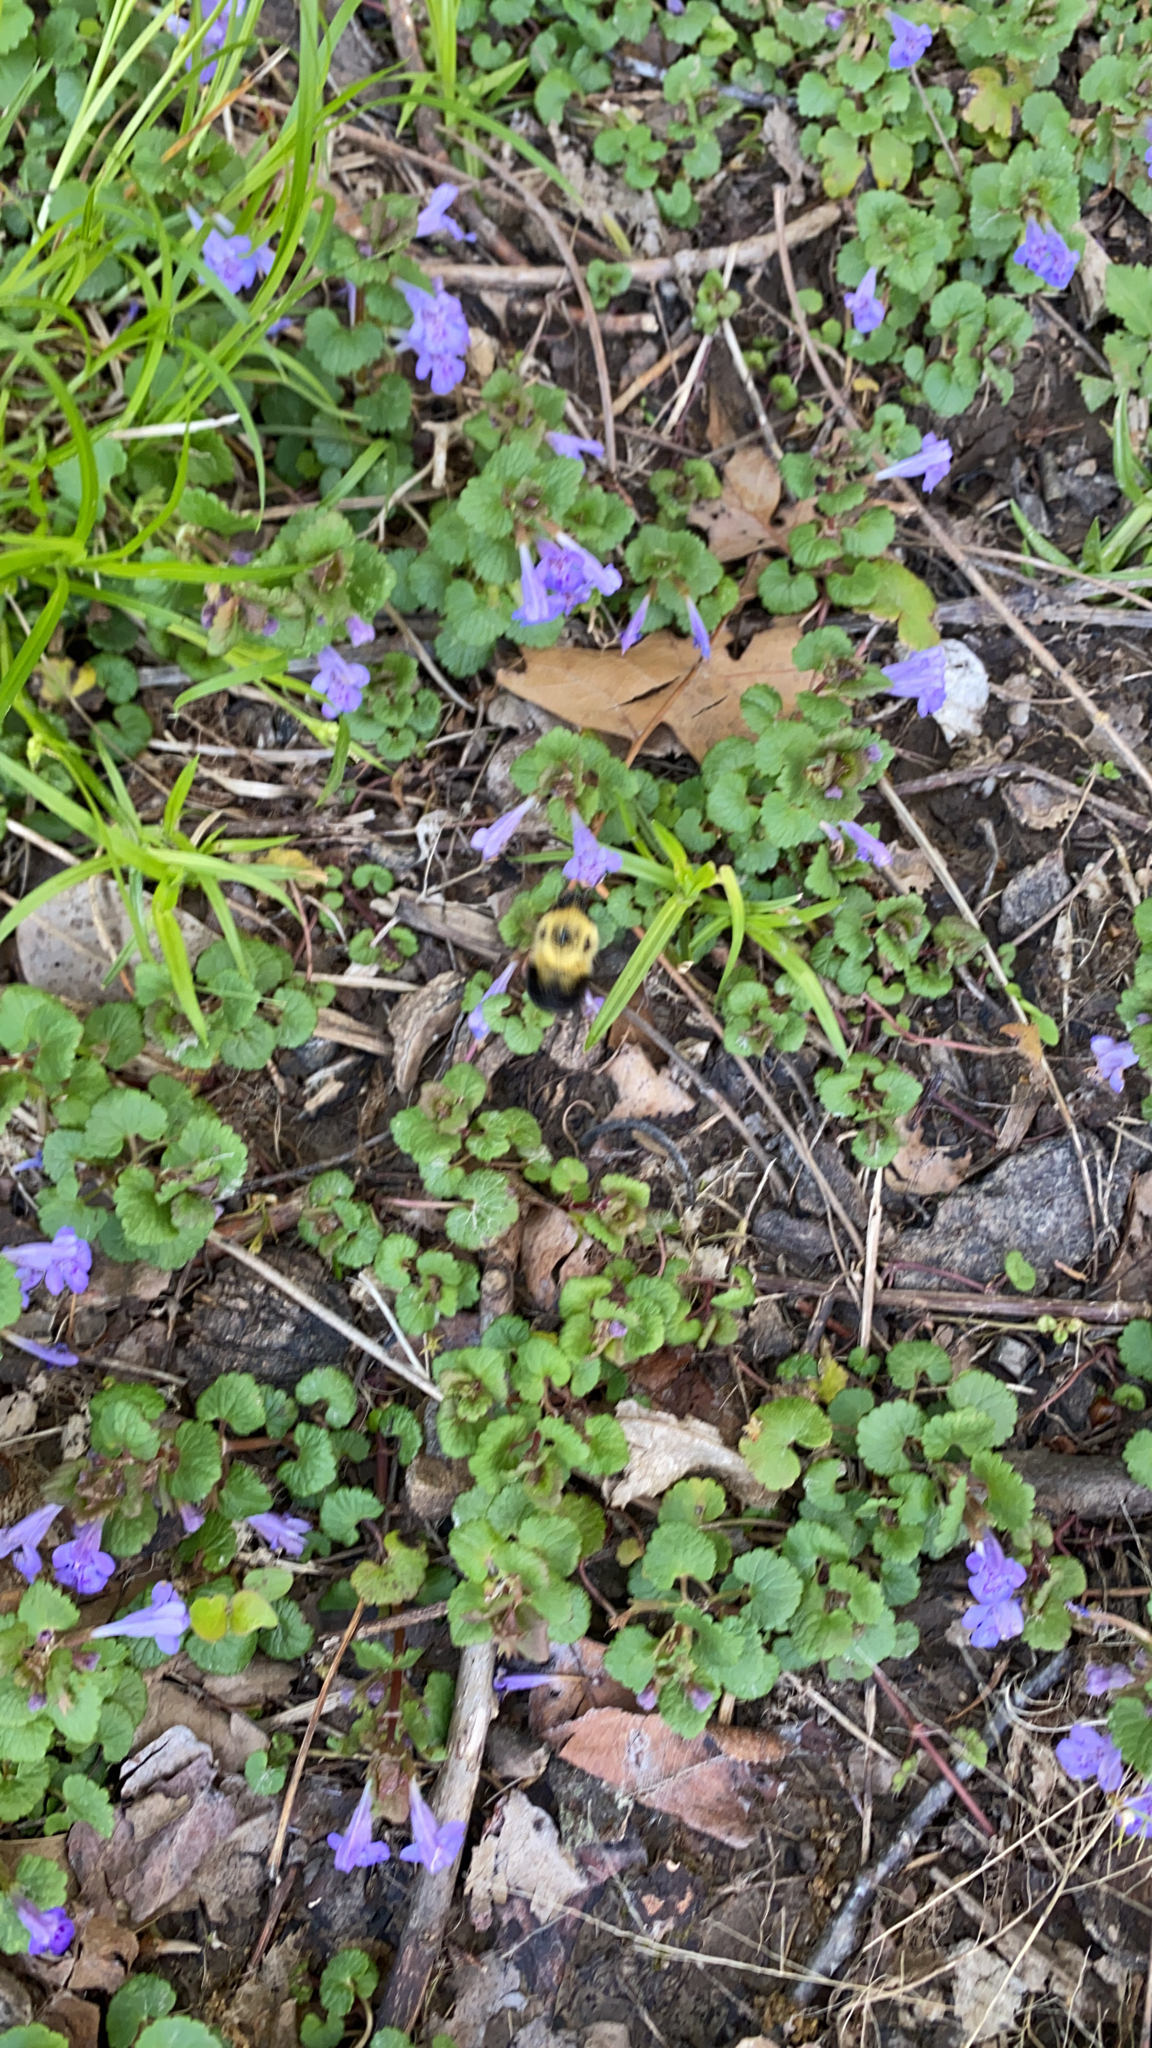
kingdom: Plantae
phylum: Tracheophyta
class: Magnoliopsida
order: Lamiales
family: Lamiaceae
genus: Glechoma
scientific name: Glechoma hederacea
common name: Ground ivy
